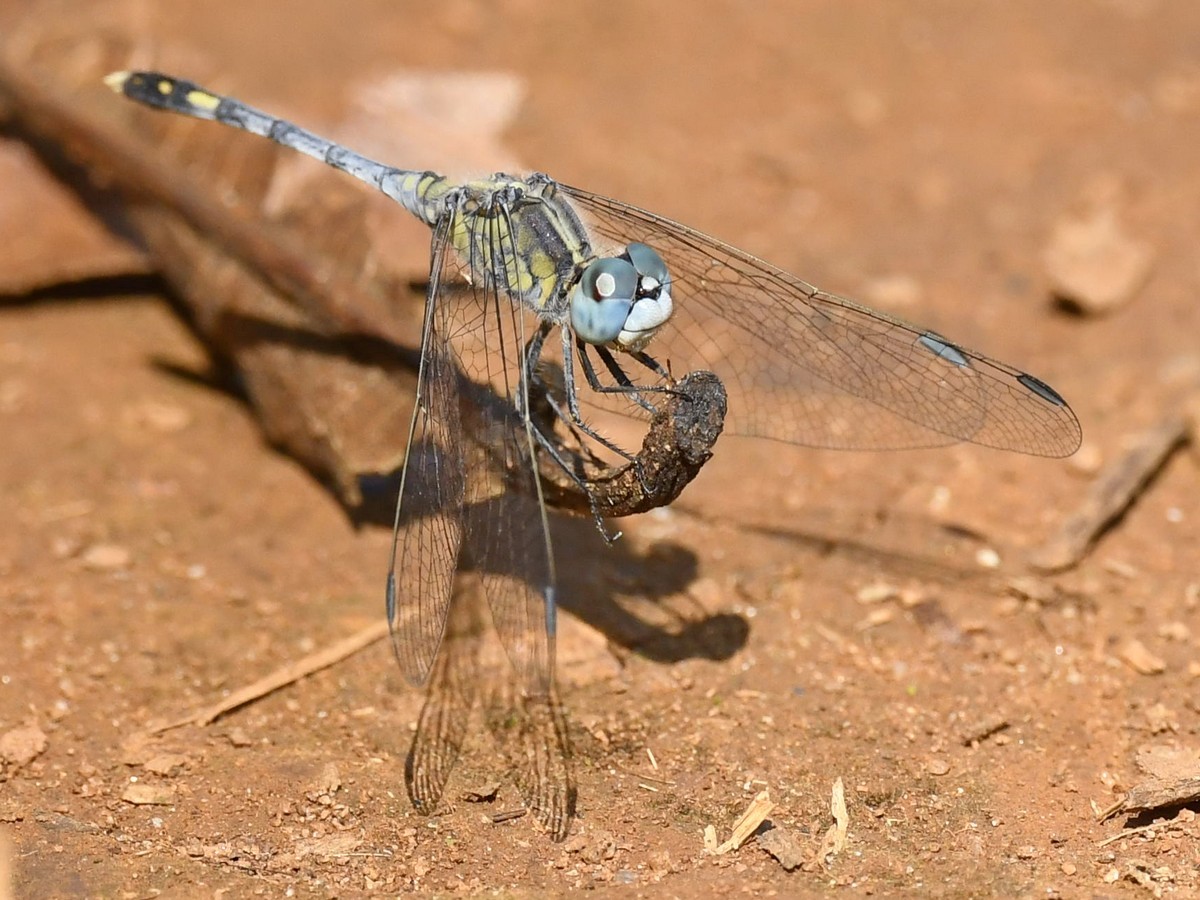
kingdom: Animalia
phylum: Arthropoda
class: Insecta
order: Odonata
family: Libellulidae
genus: Diplacodes
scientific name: Diplacodes trivialis
